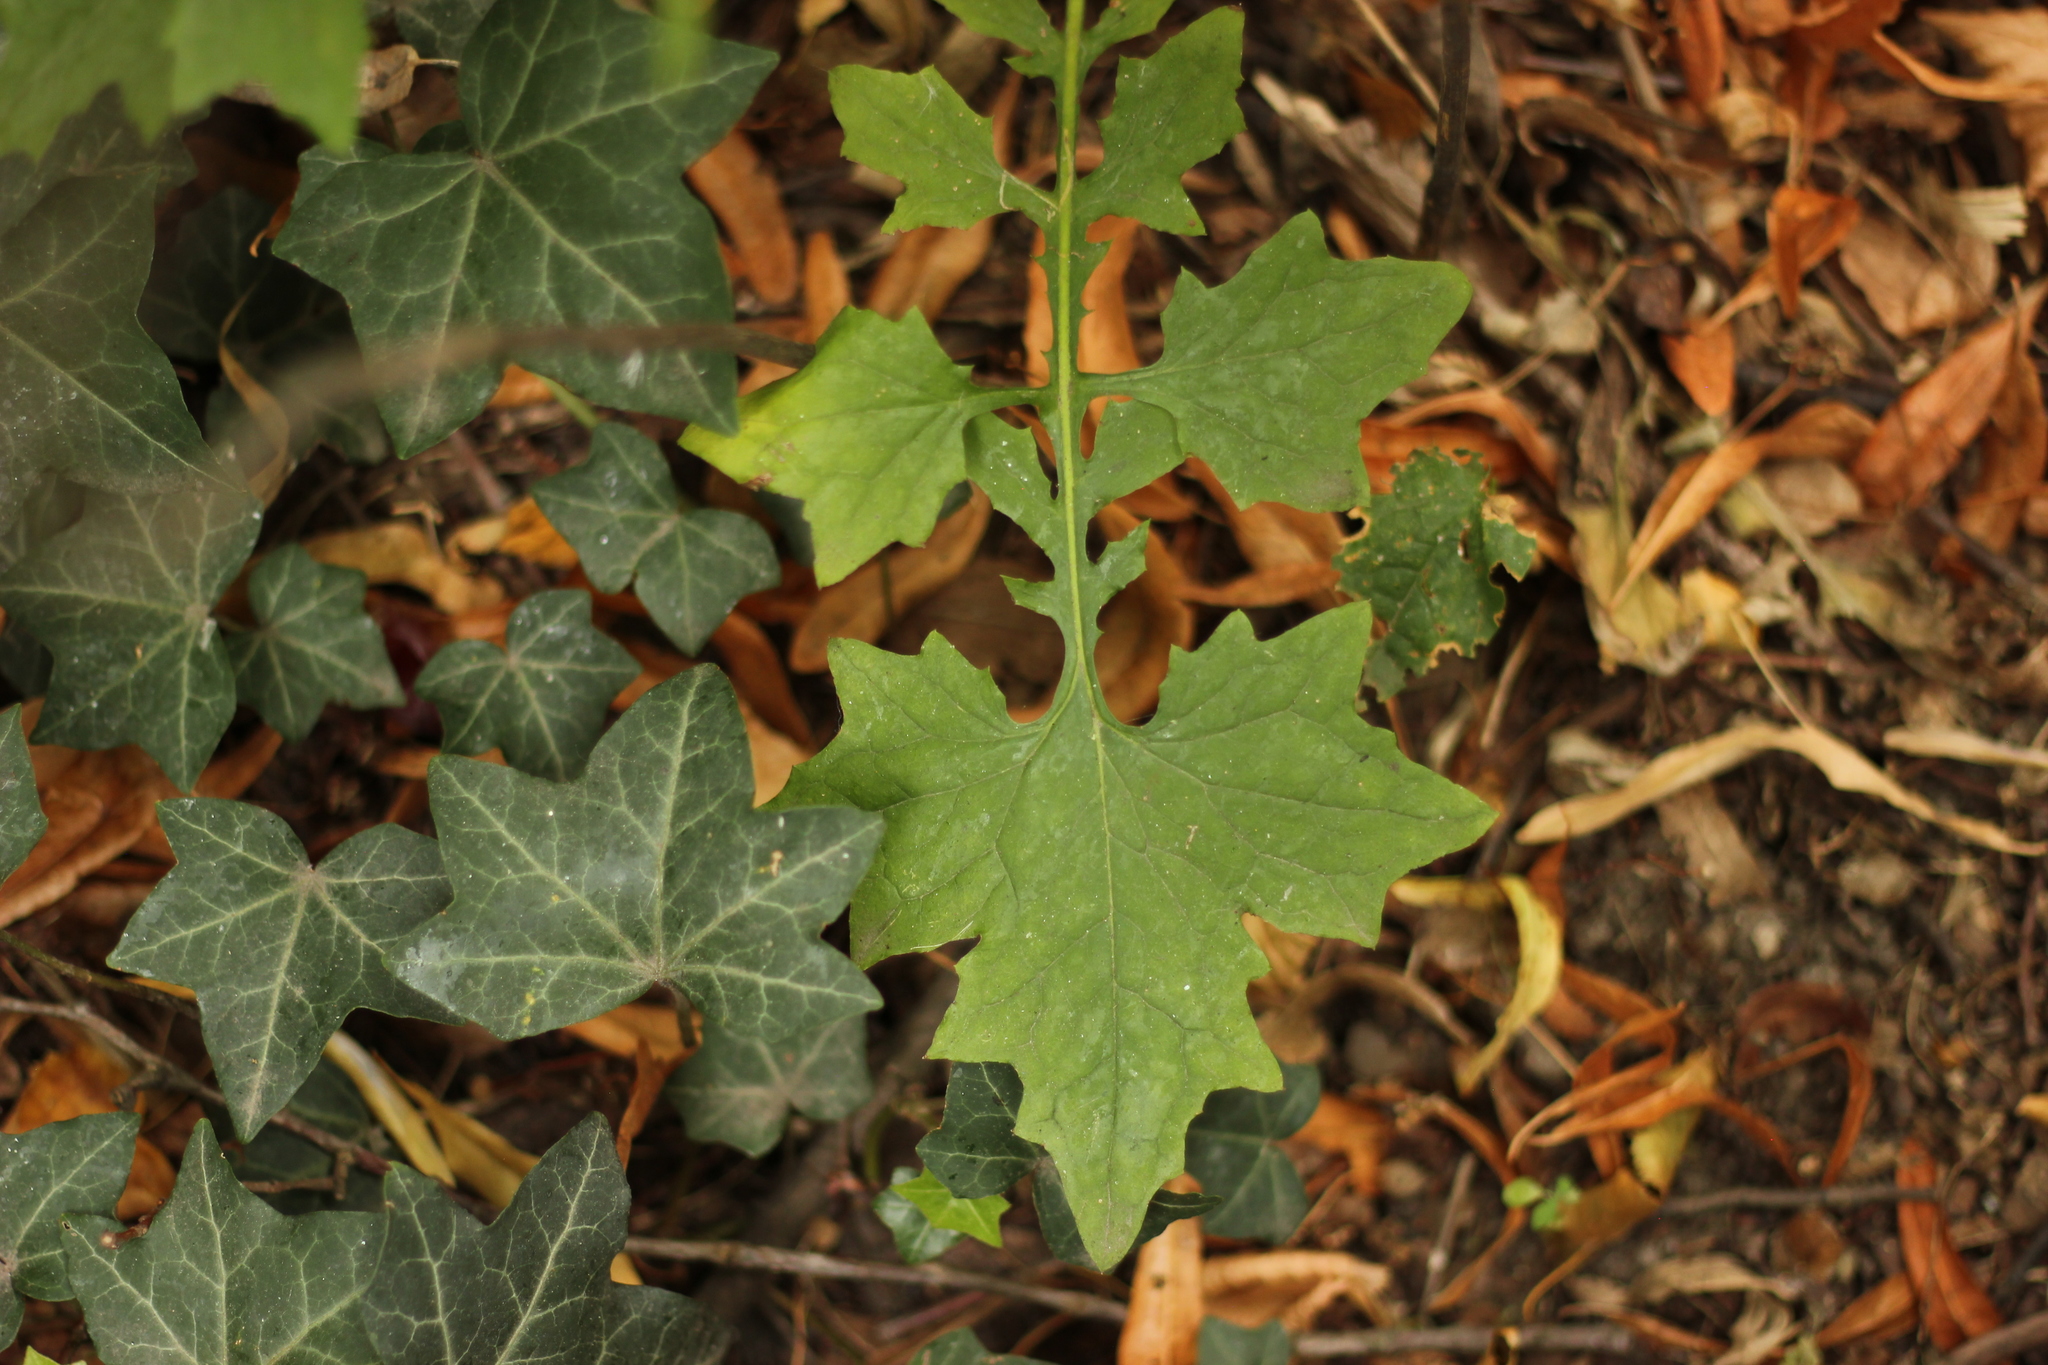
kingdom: Plantae
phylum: Tracheophyta
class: Magnoliopsida
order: Asterales
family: Asteraceae
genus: Mycelis
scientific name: Mycelis muralis
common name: Wall lettuce
